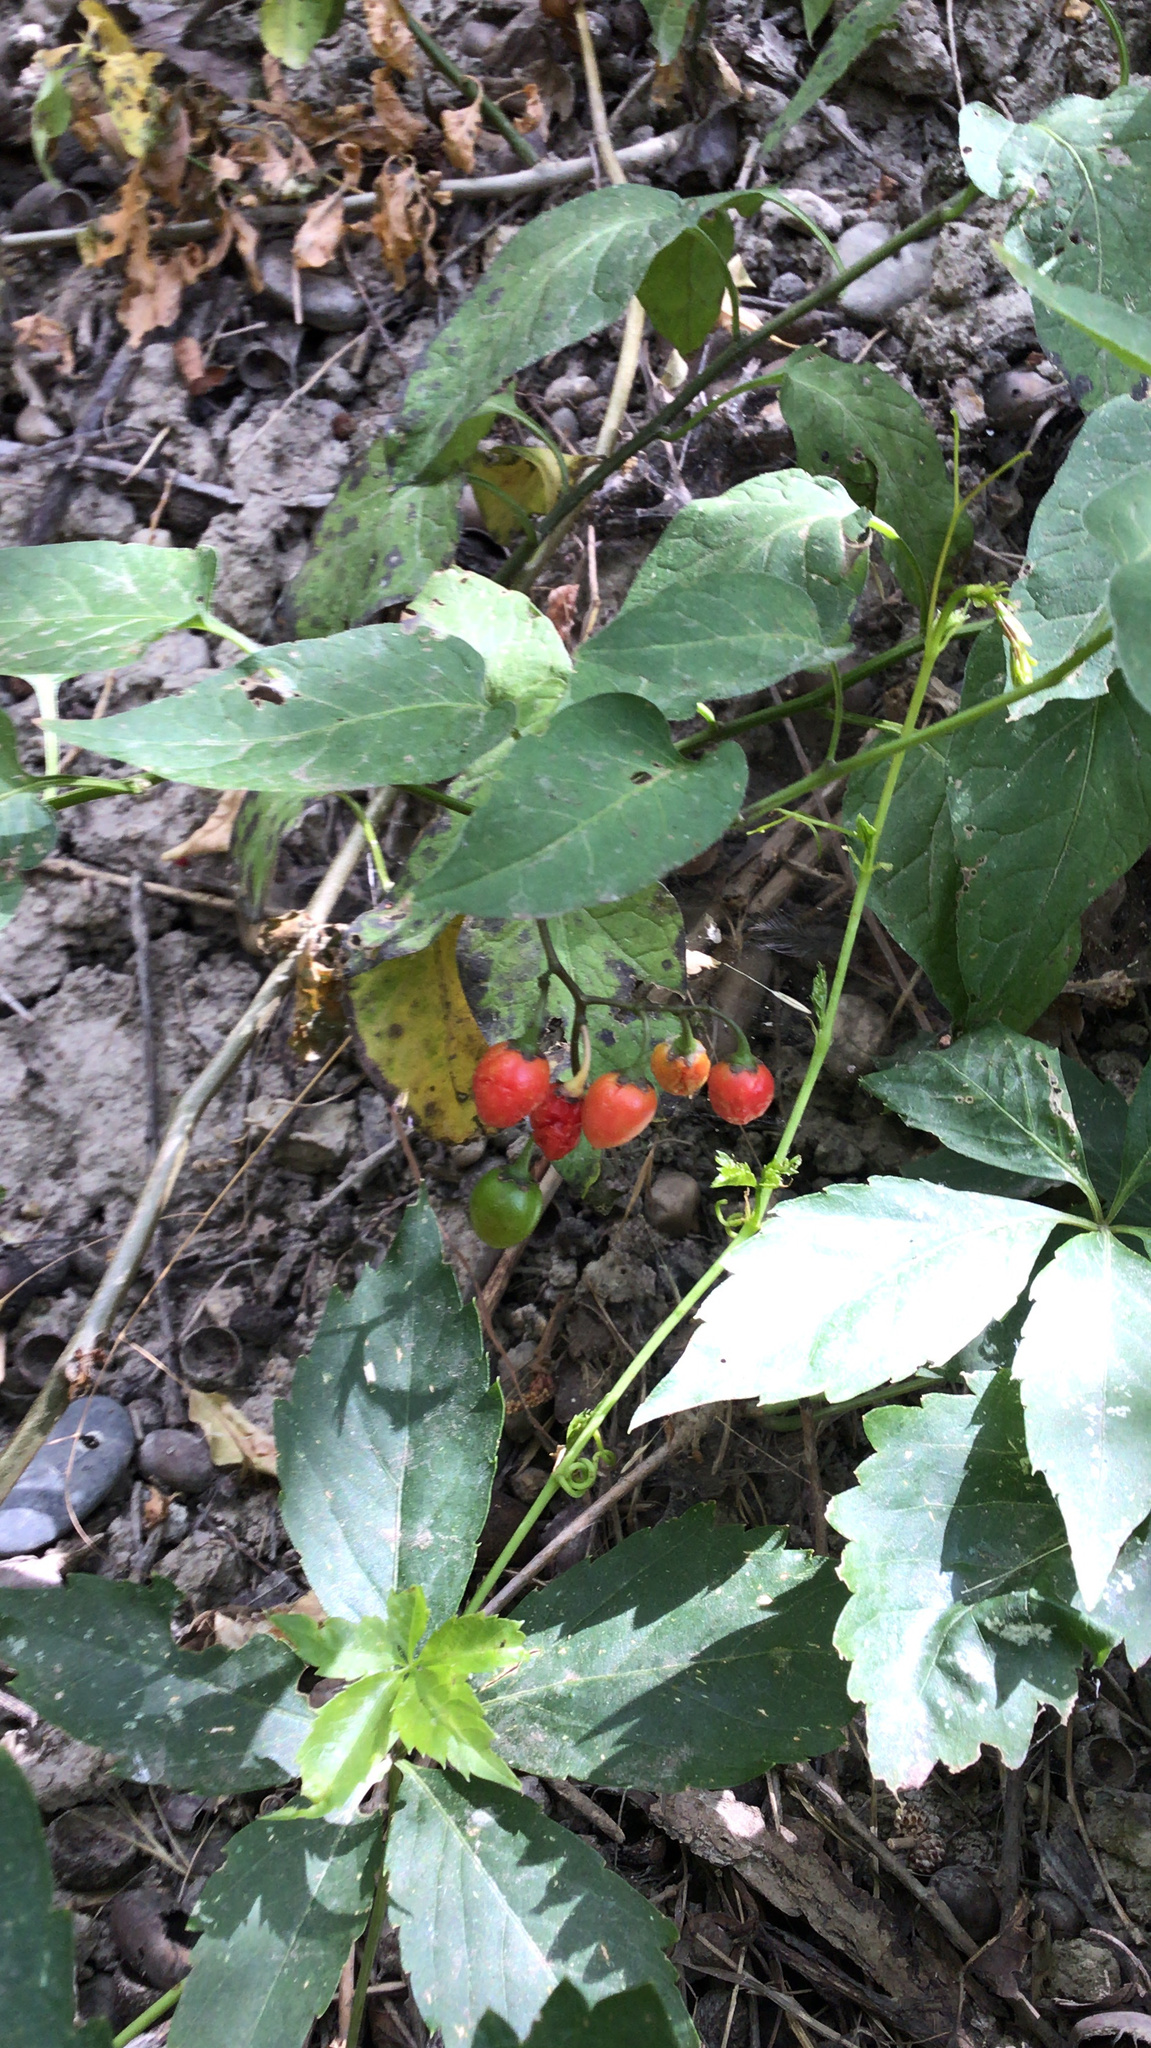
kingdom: Plantae
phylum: Tracheophyta
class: Magnoliopsida
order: Solanales
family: Solanaceae
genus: Solanum
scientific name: Solanum dulcamara
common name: Climbing nightshade
